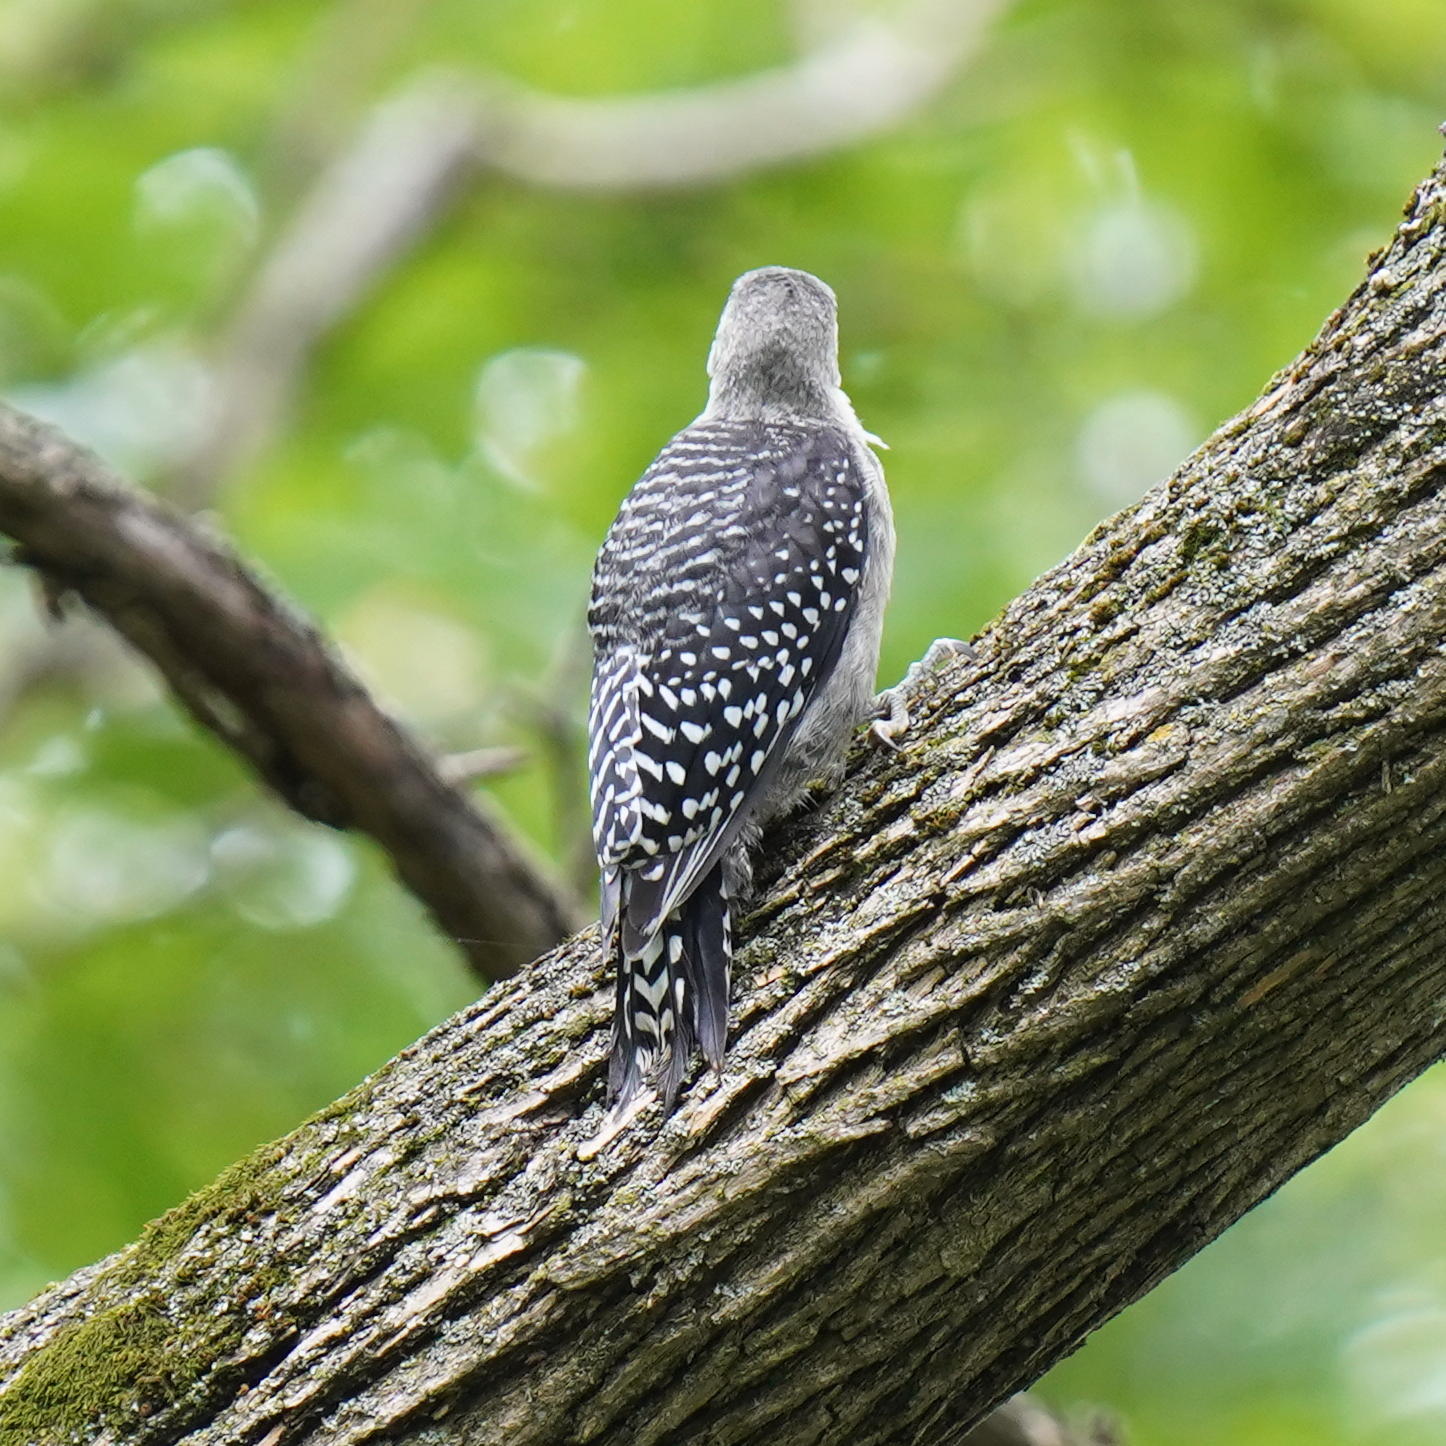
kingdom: Animalia
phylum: Chordata
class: Aves
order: Piciformes
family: Picidae
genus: Melanerpes
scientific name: Melanerpes carolinus
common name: Red-bellied woodpecker
